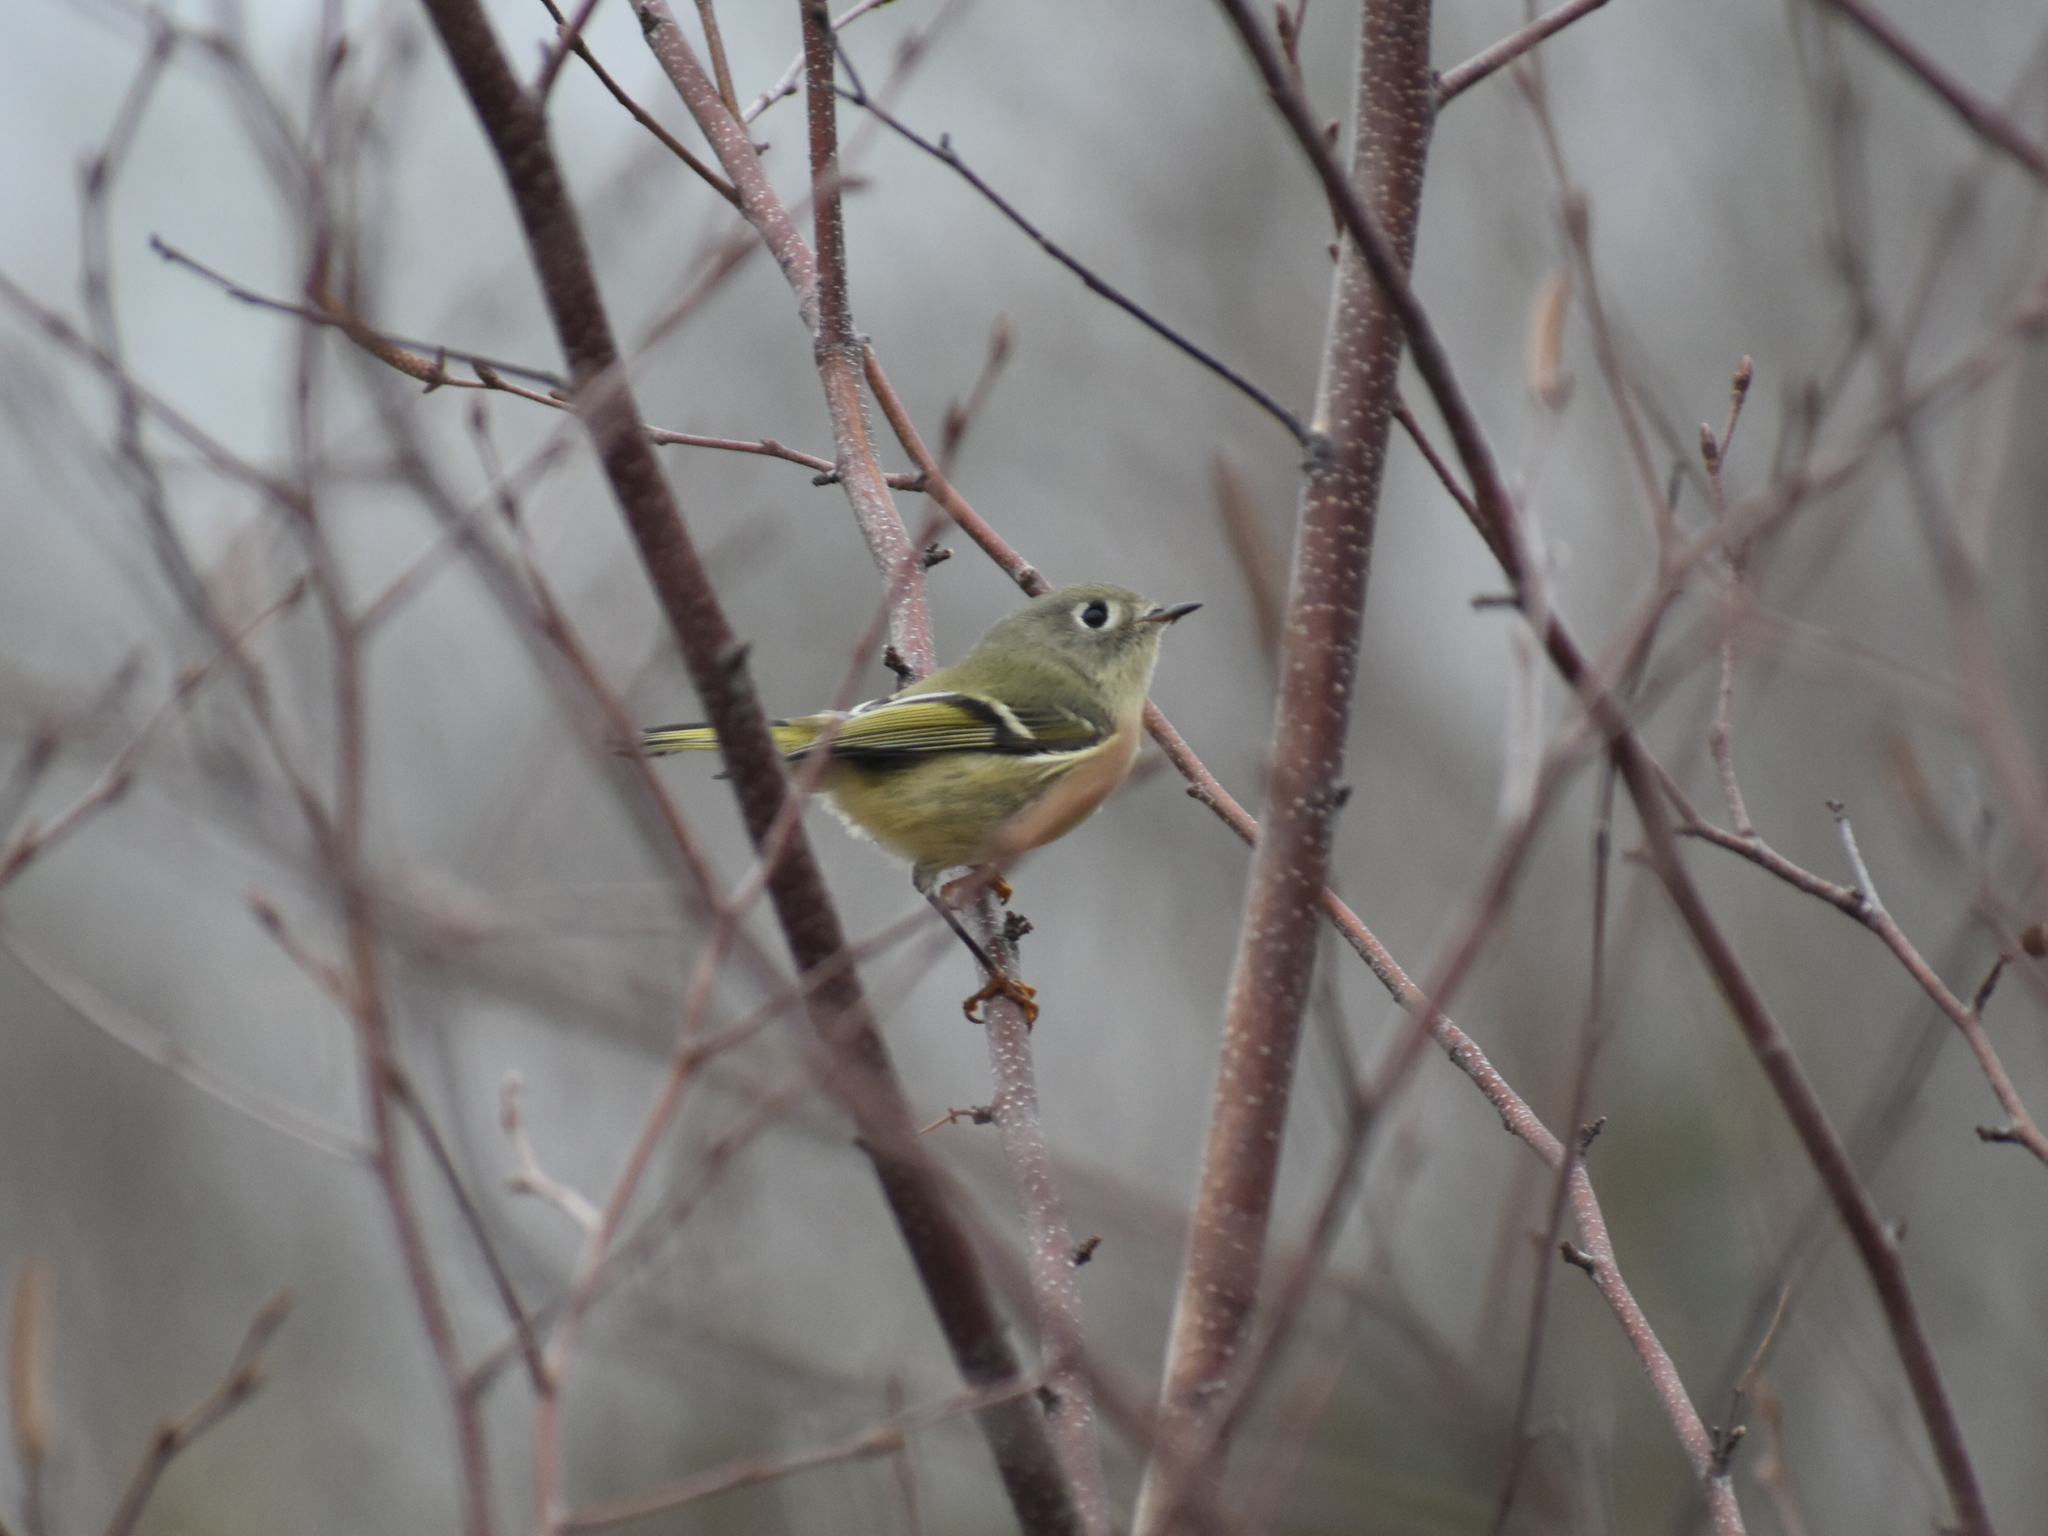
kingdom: Animalia
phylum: Chordata
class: Aves
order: Passeriformes
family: Regulidae
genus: Regulus
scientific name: Regulus calendula
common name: Ruby-crowned kinglet
